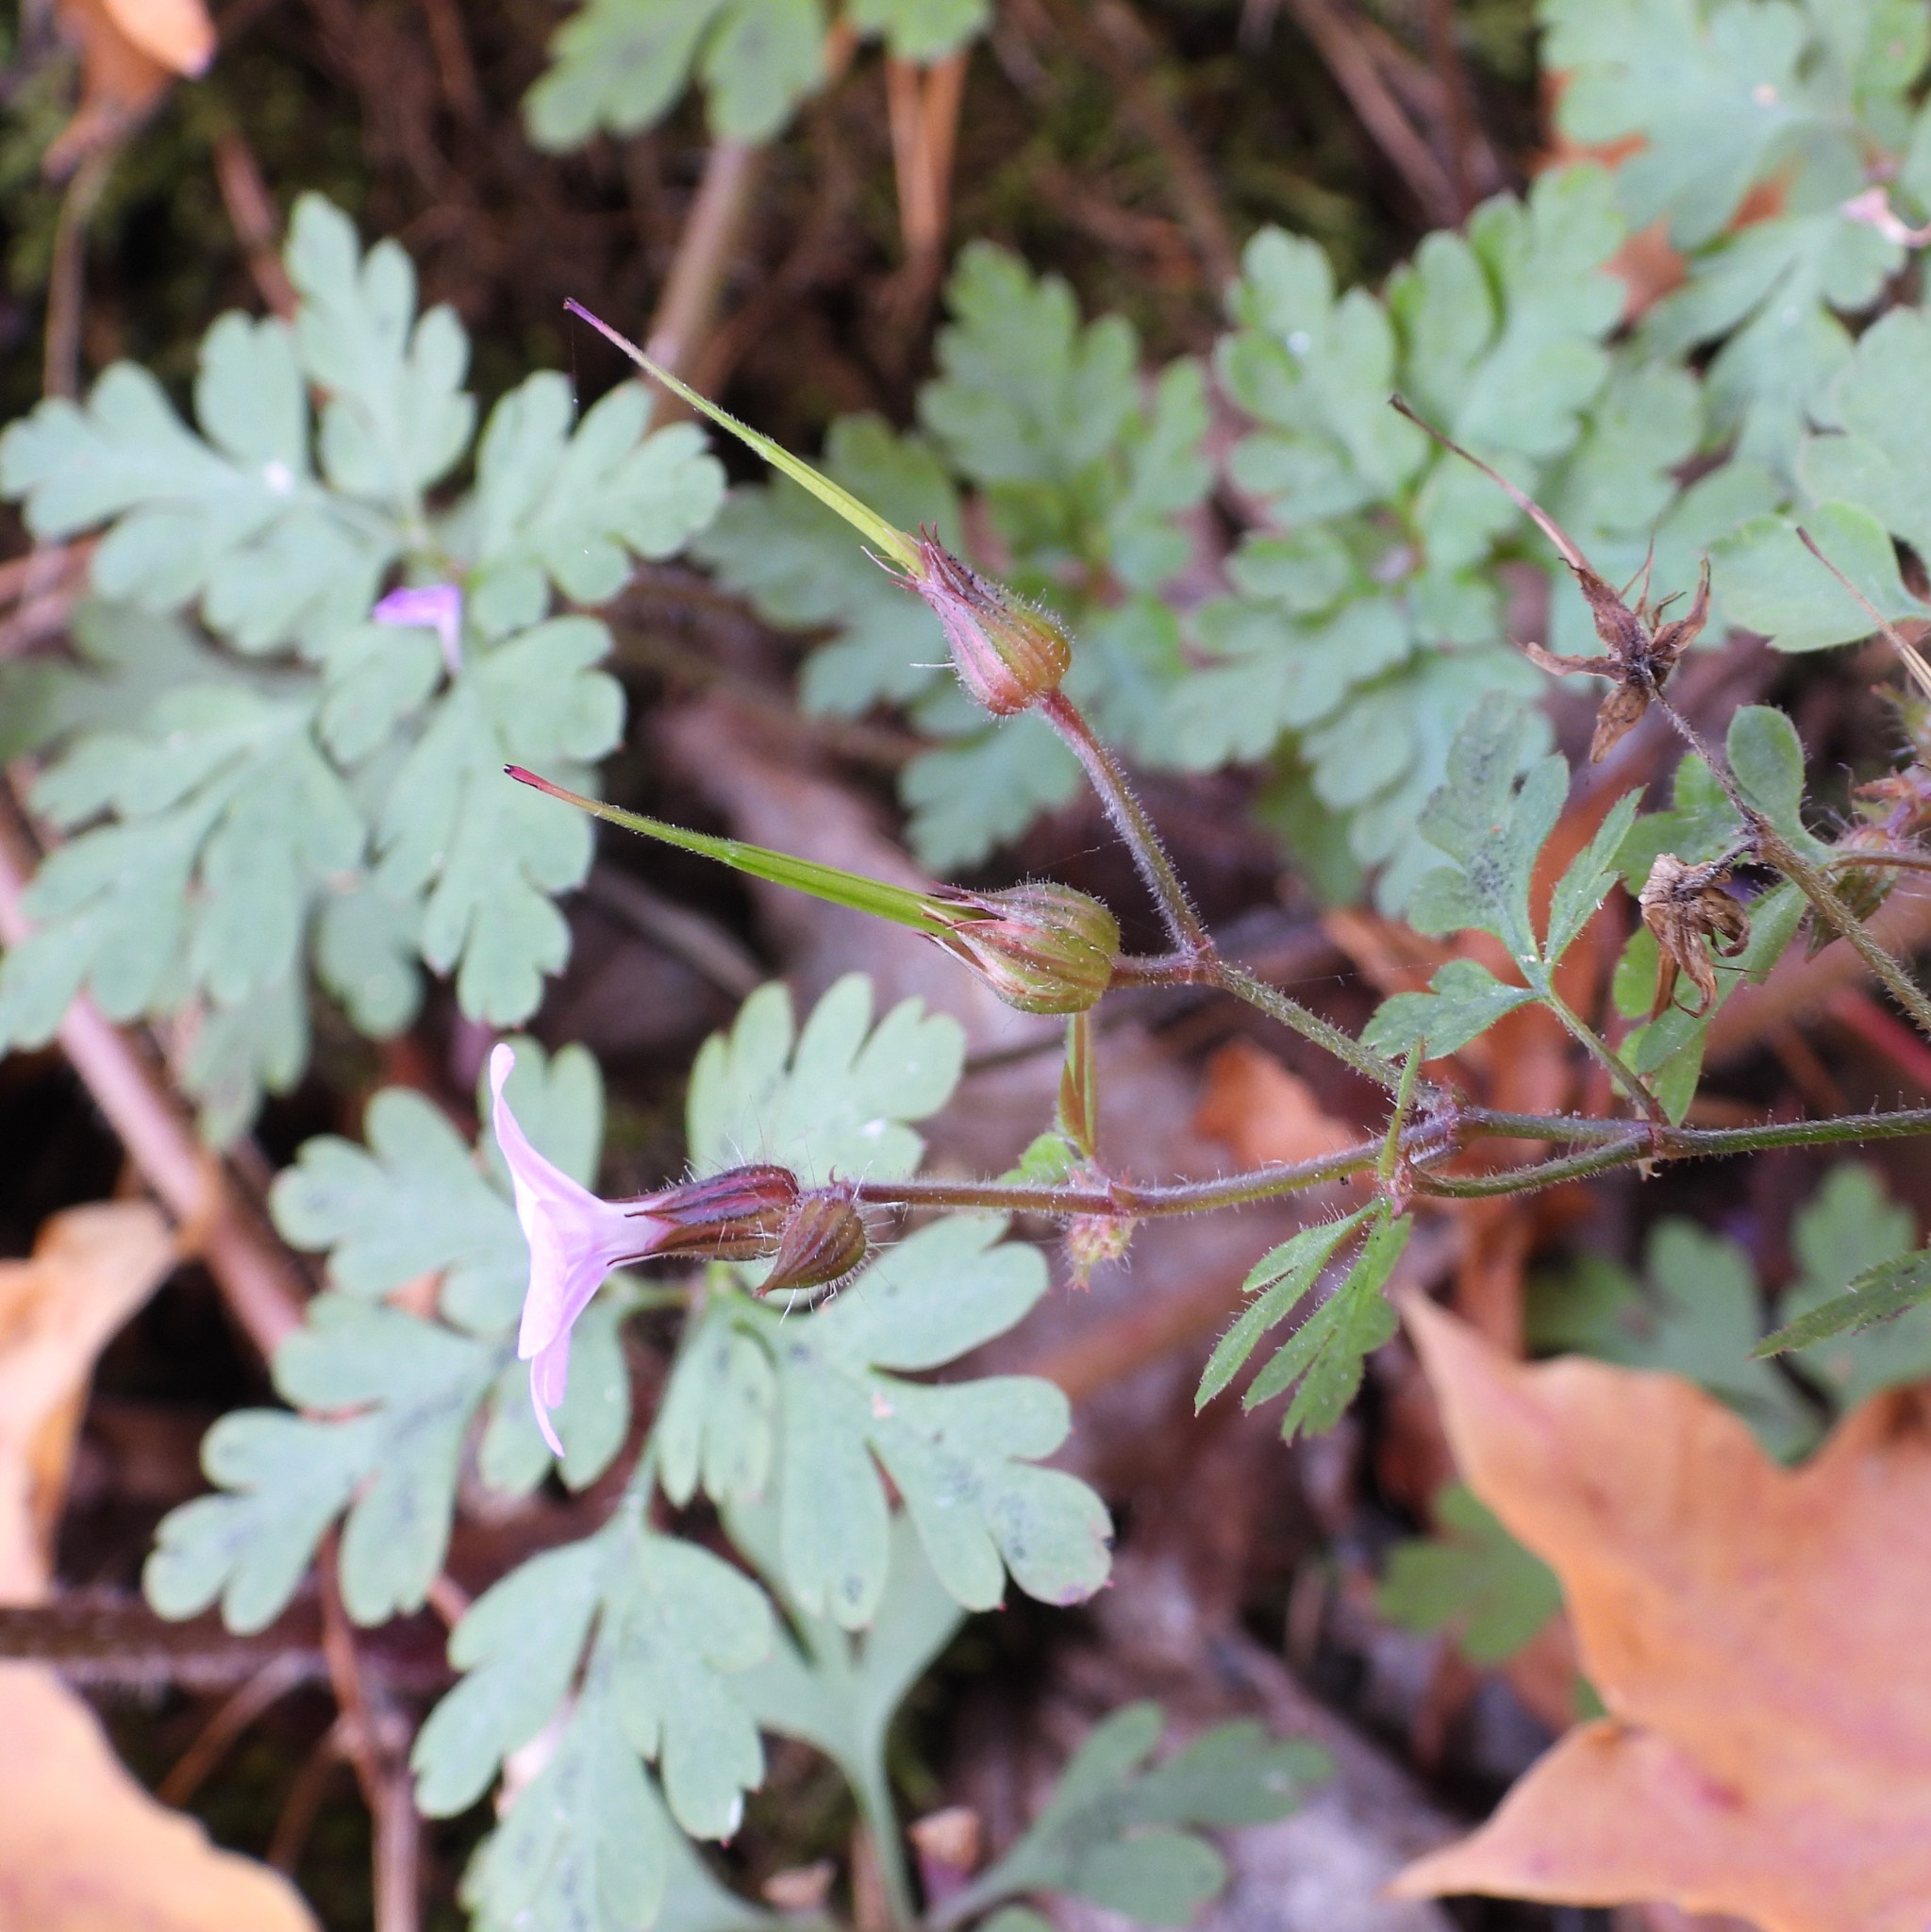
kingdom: Plantae
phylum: Tracheophyta
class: Magnoliopsida
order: Geraniales
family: Geraniaceae
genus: Geranium
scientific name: Geranium robertianum
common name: Herb-robert
